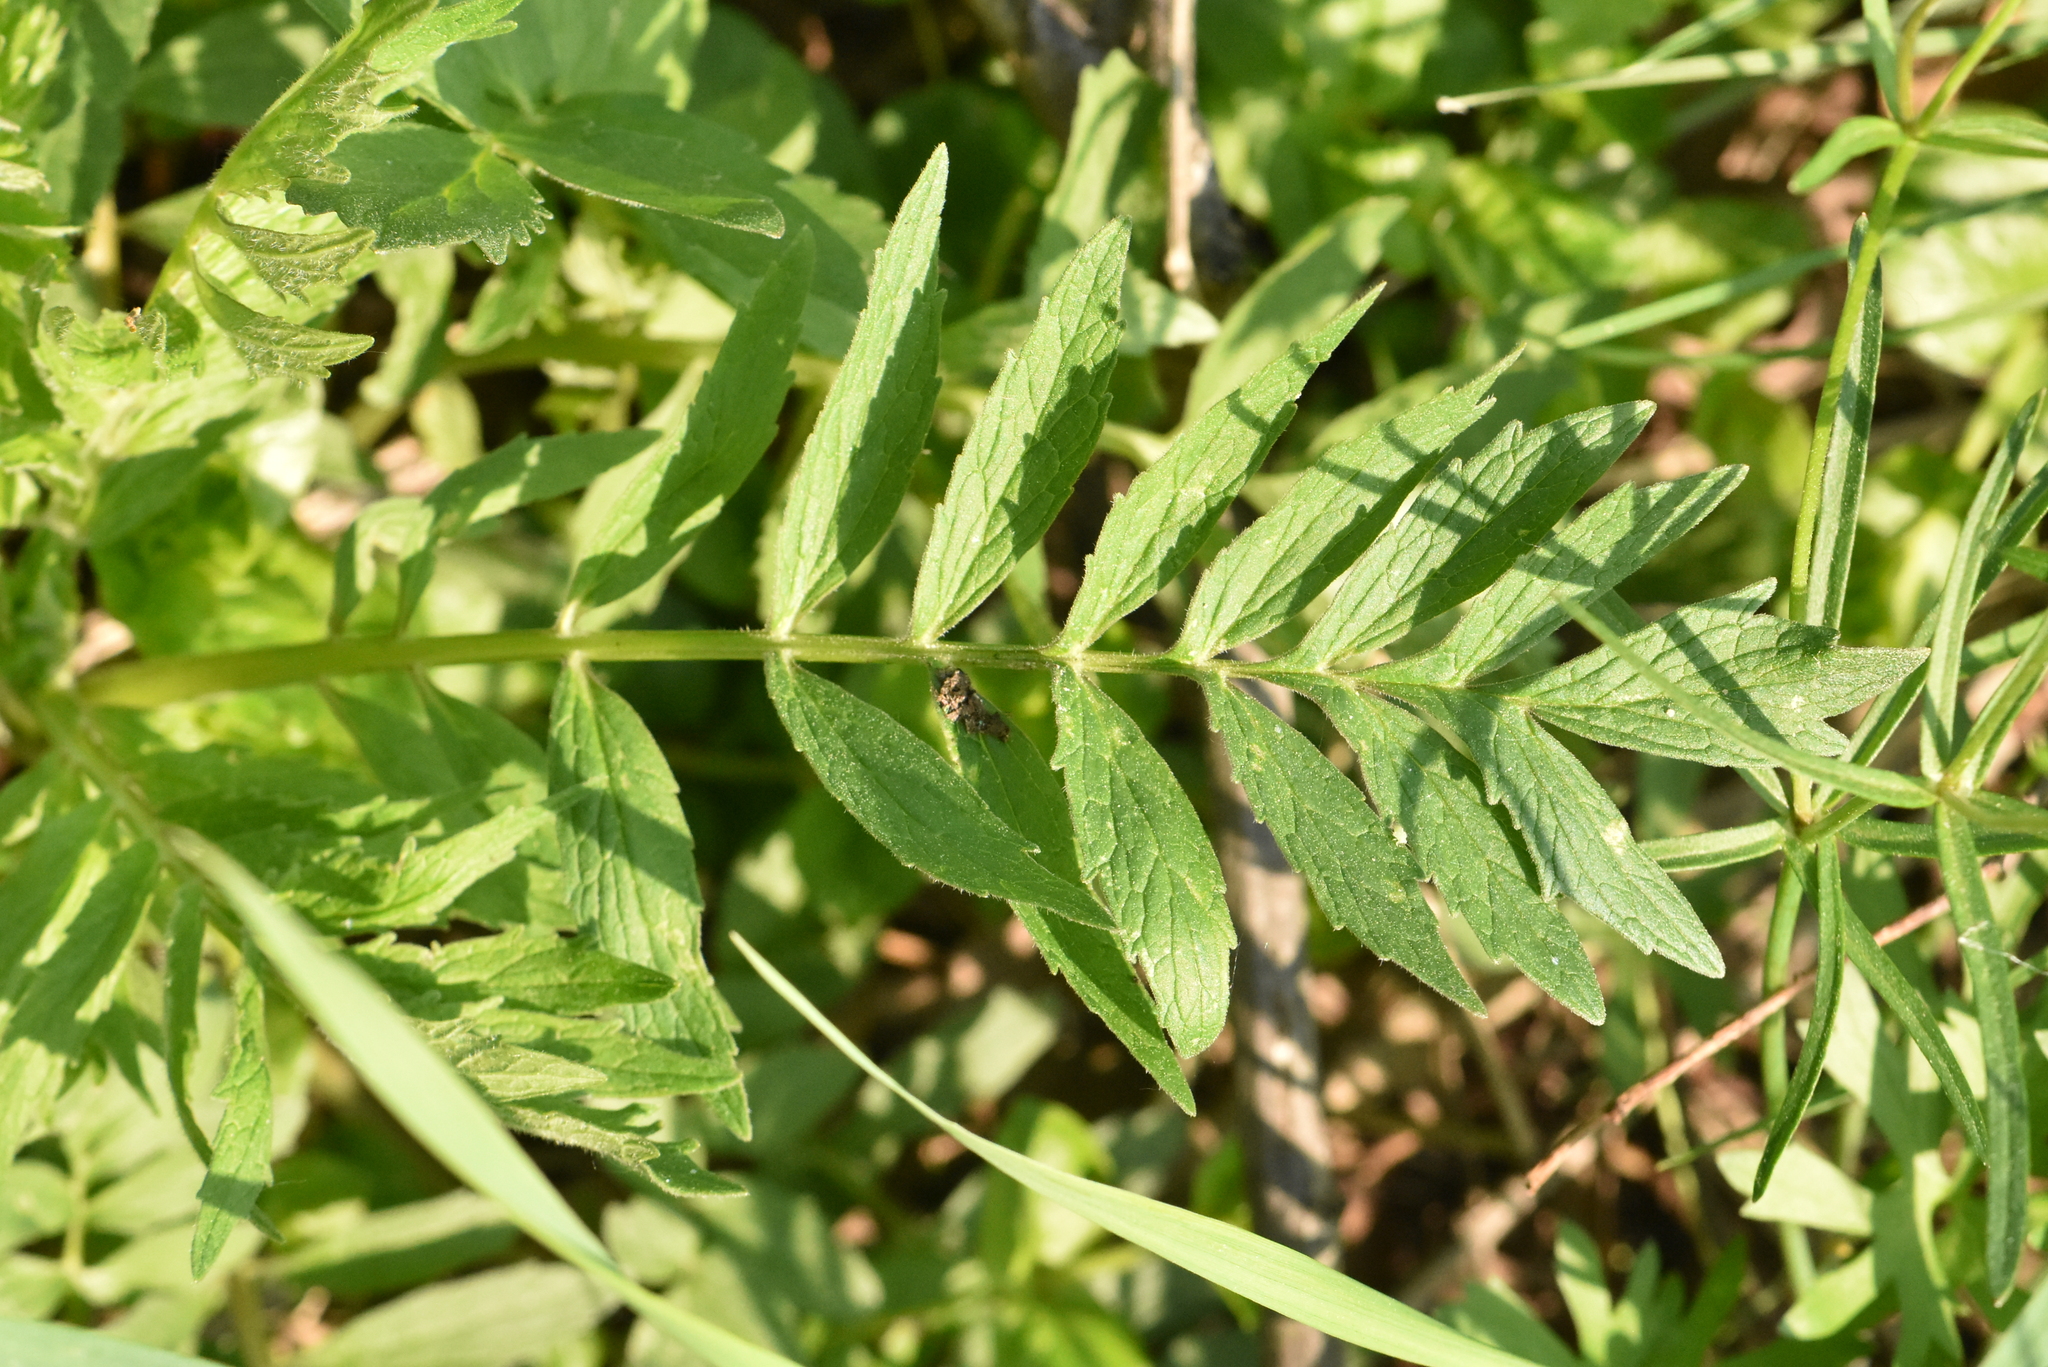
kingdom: Plantae
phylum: Tracheophyta
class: Magnoliopsida
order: Dipsacales
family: Caprifoliaceae
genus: Valeriana
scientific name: Valeriana officinalis
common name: Common valerian
